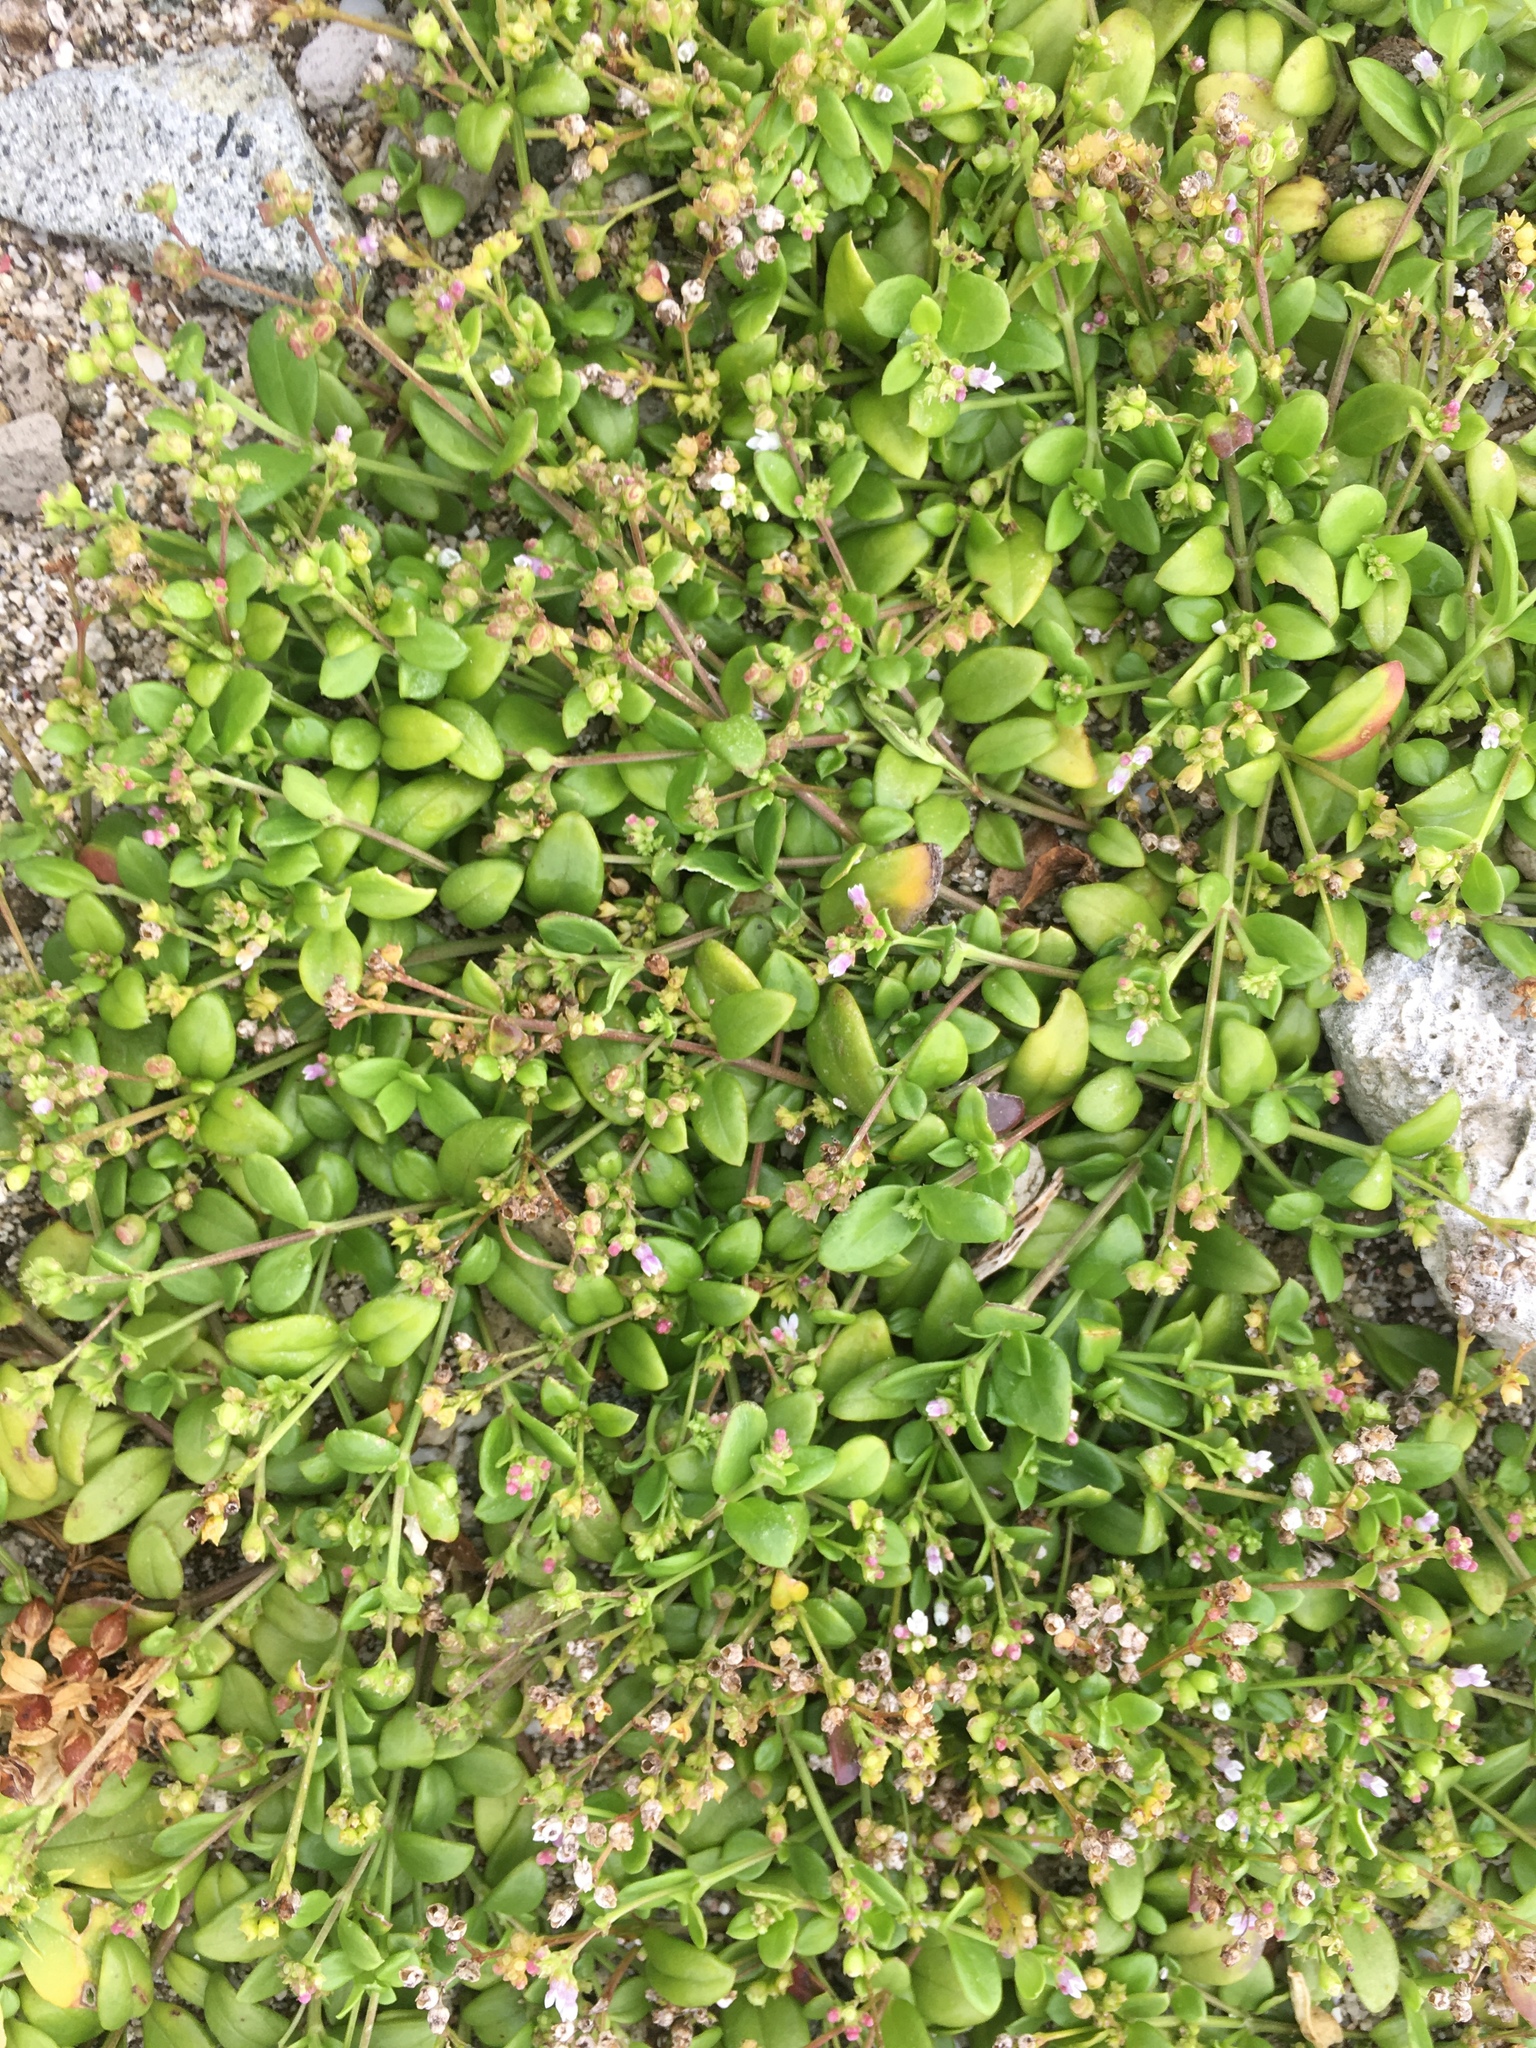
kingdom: Plantae
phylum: Tracheophyta
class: Magnoliopsida
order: Gentianales
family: Rubiaceae
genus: Leptopetalum
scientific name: Leptopetalum racemosum
